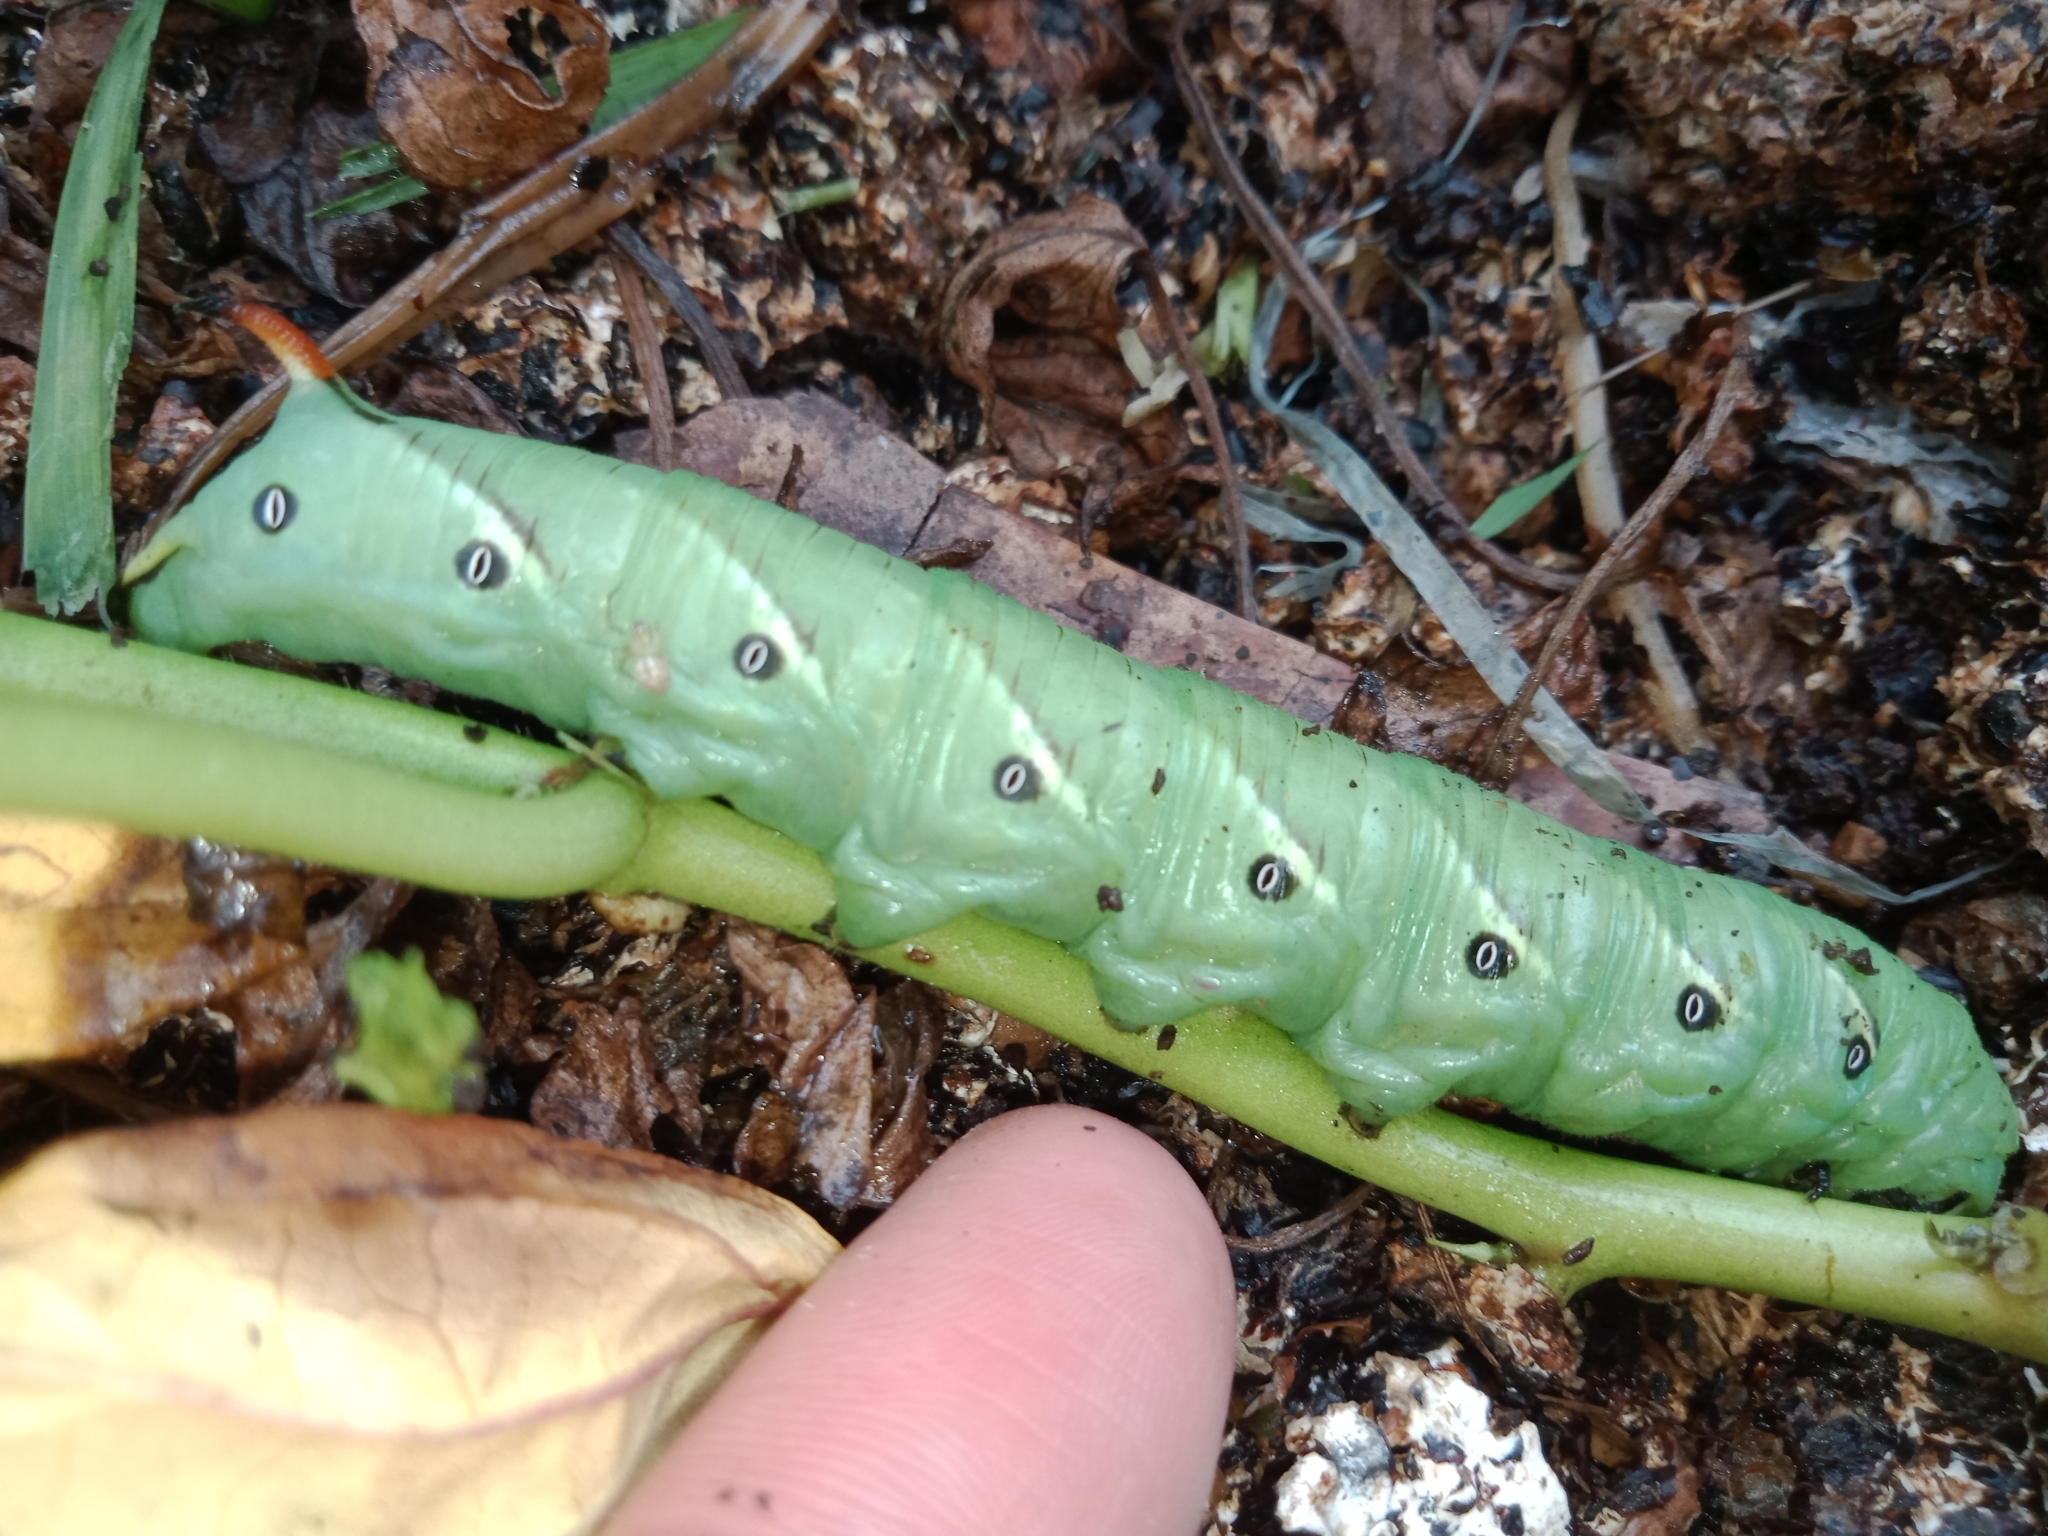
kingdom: Animalia
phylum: Arthropoda
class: Insecta
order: Lepidoptera
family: Sphingidae
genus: Agrius
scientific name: Agrius convolvuli
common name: Convolvulus hawkmoth
